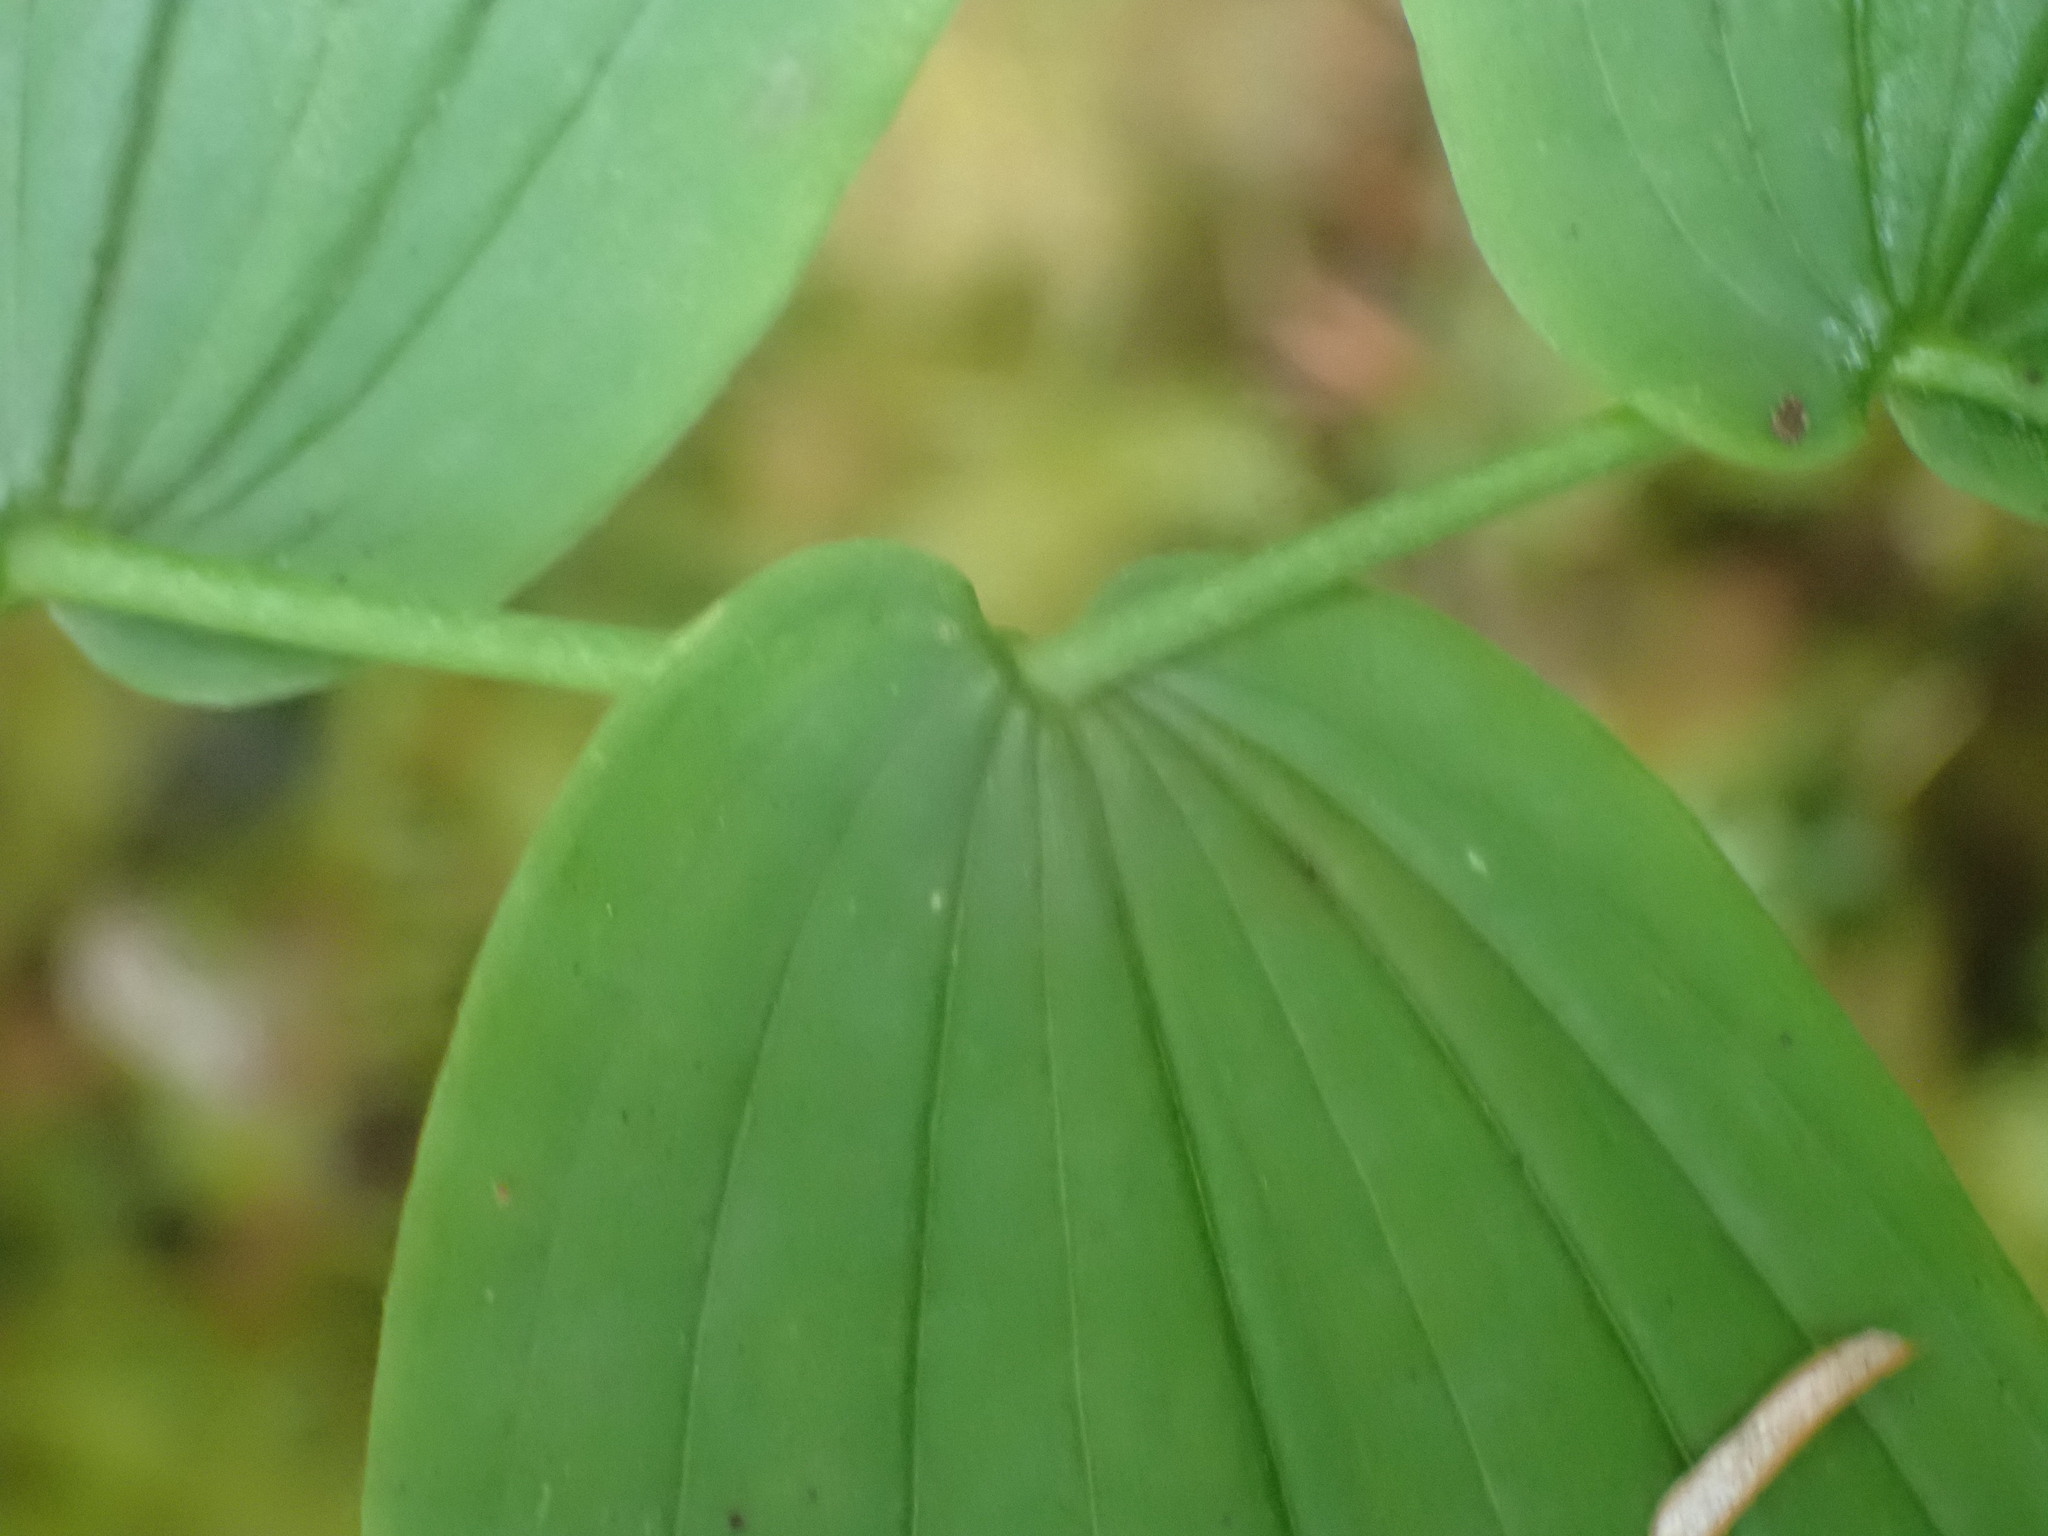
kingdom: Plantae
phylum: Tracheophyta
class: Liliopsida
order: Liliales
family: Liliaceae
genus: Streptopus
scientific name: Streptopus amplexifolius
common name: Clasp twisted stalk
